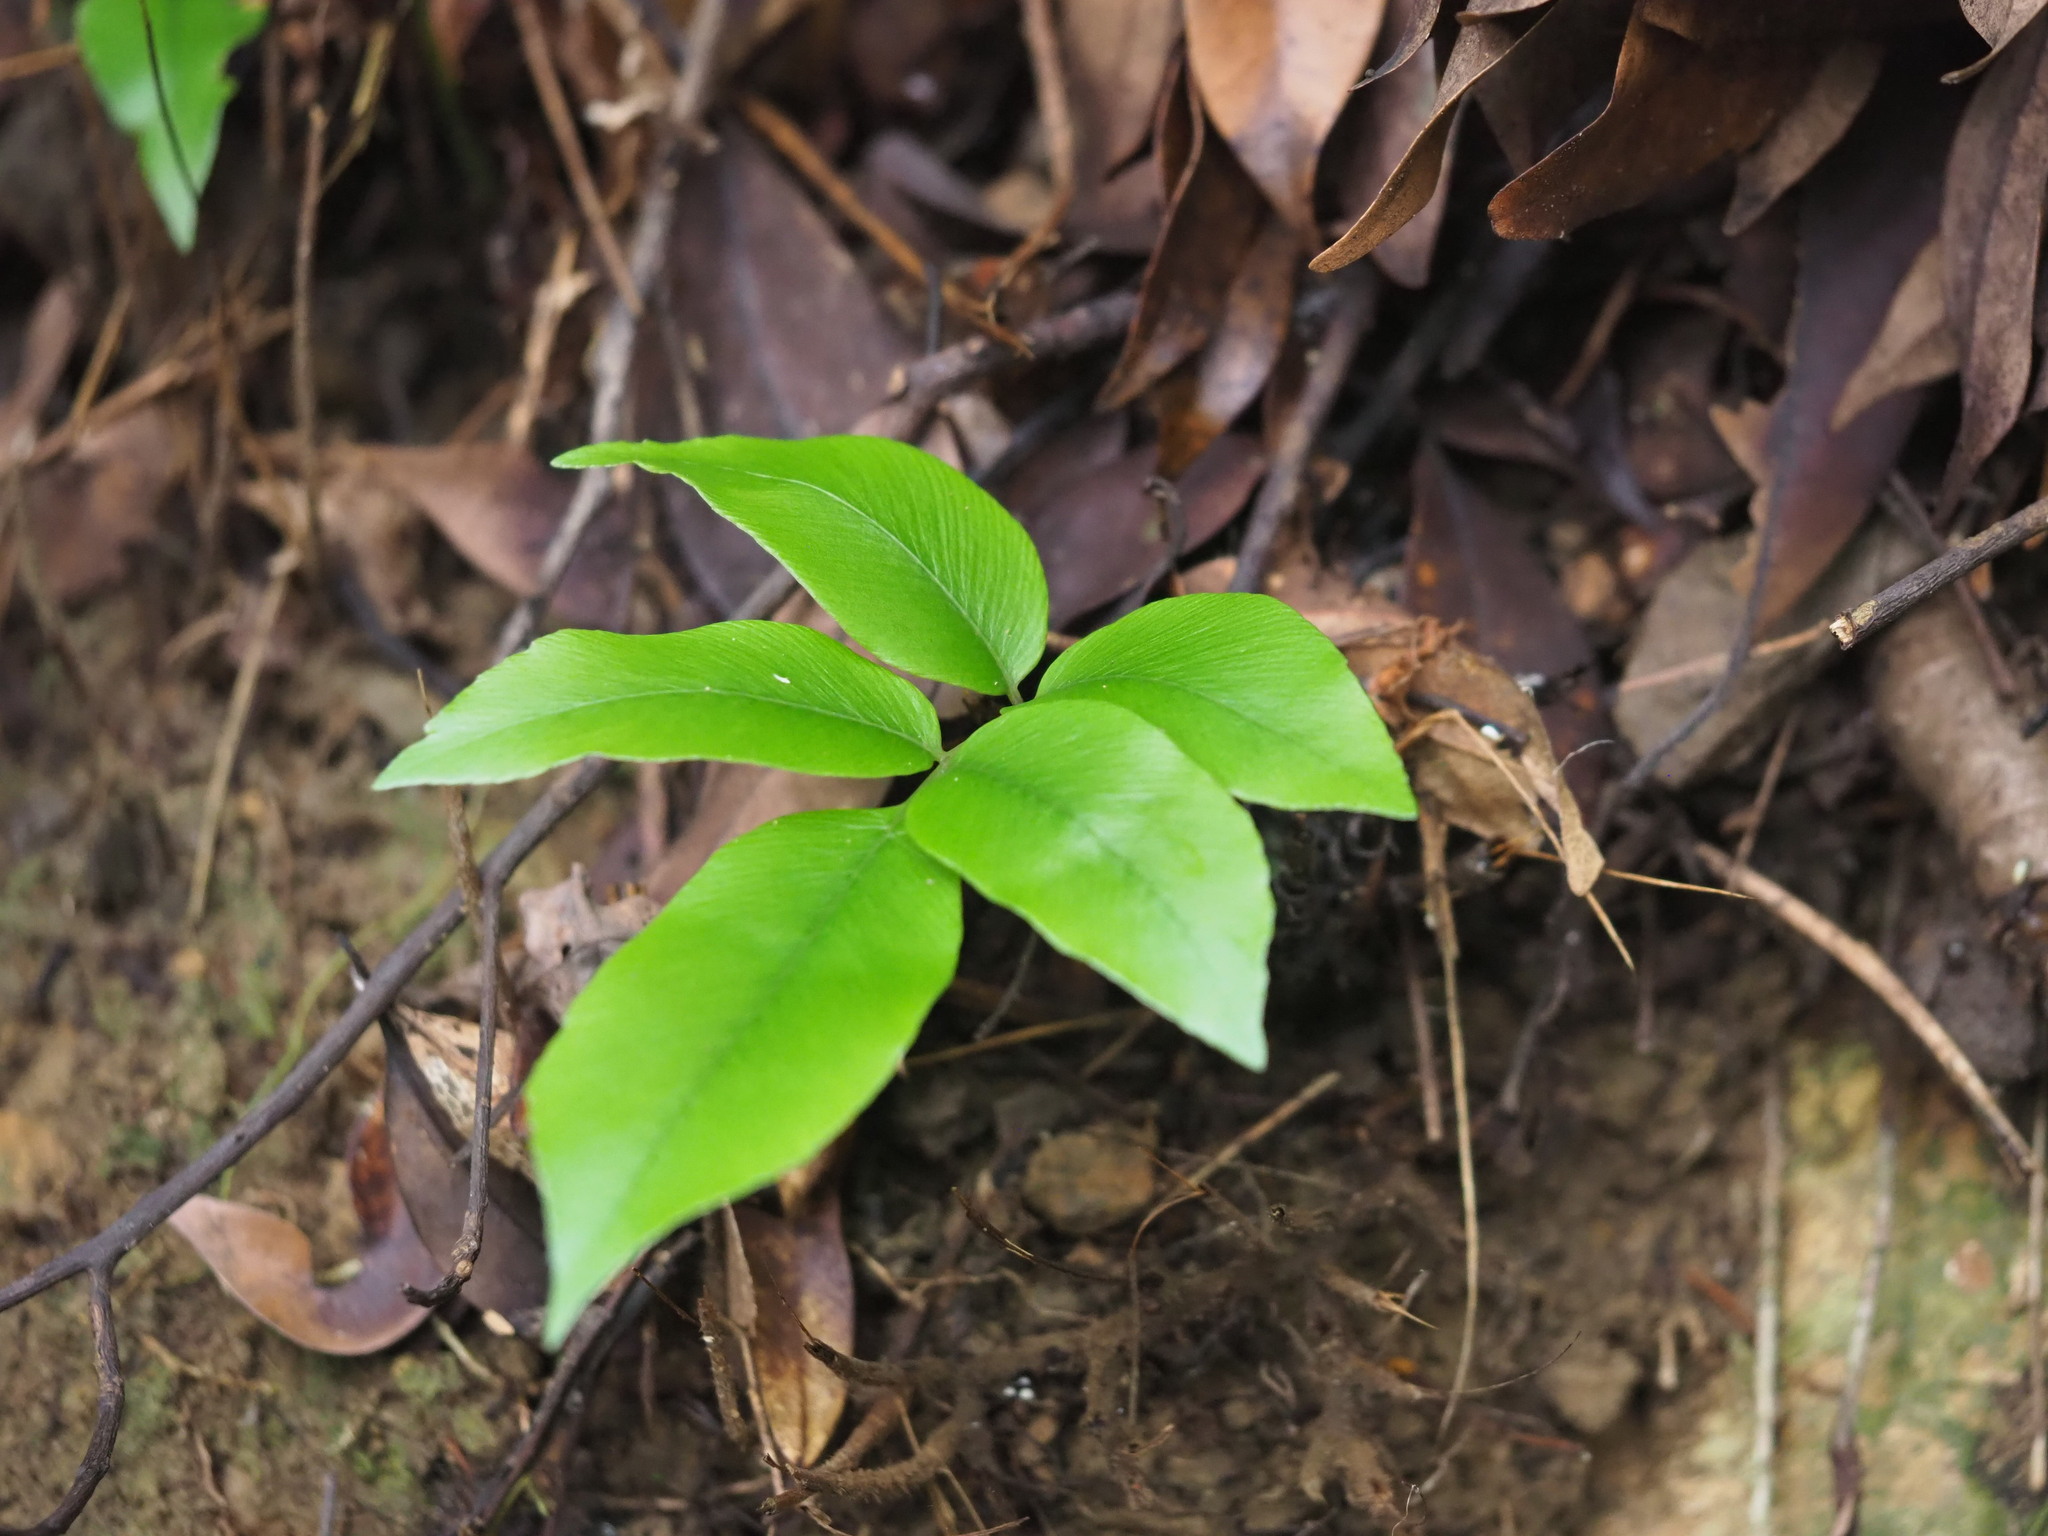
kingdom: Plantae
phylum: Tracheophyta
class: Polypodiopsida
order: Polypodiales
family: Athyriaceae
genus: Diplazium
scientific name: Diplazium lineolatum
